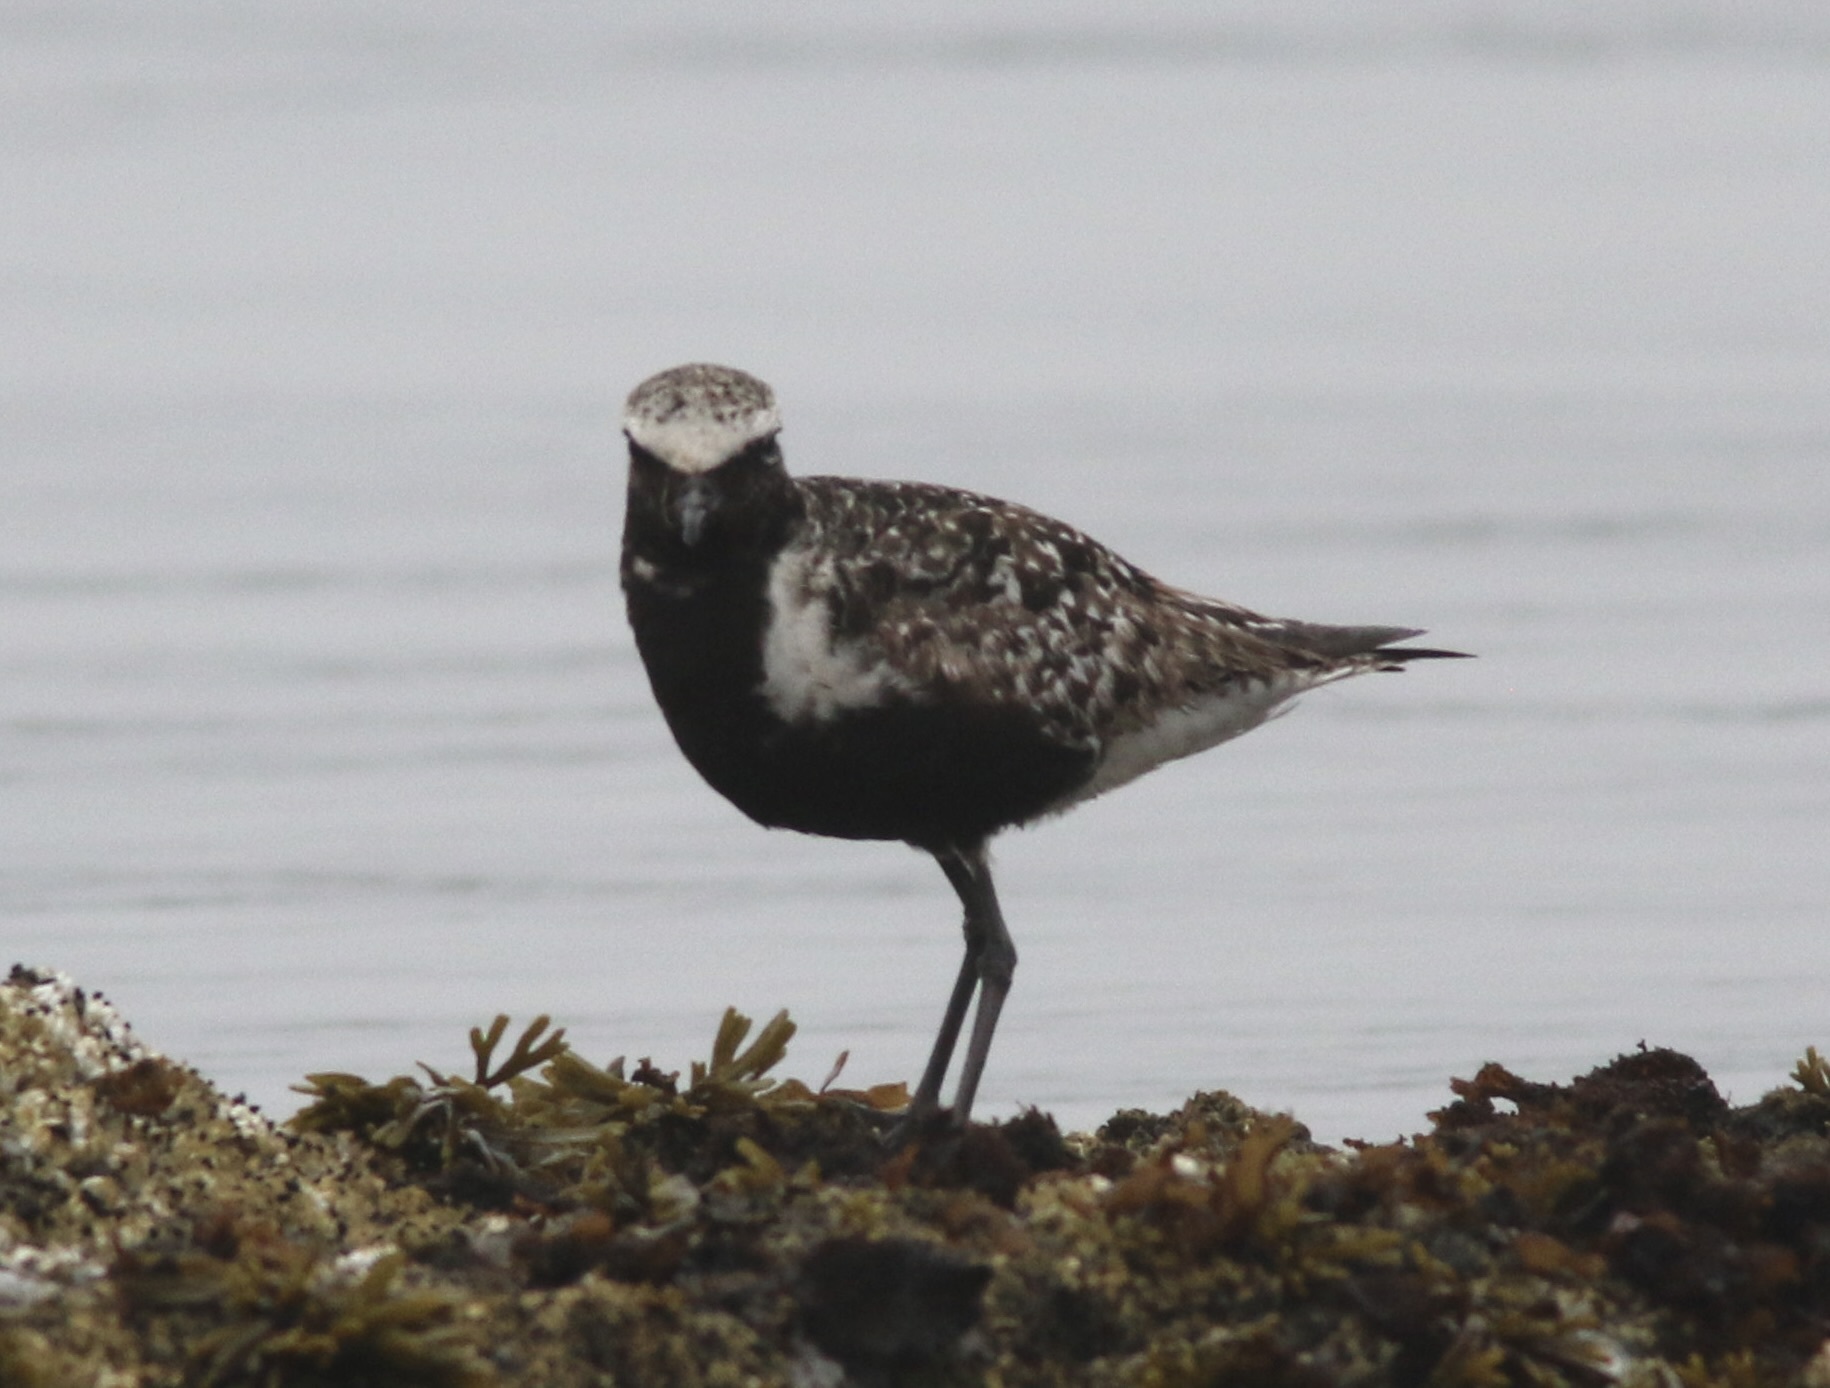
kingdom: Animalia
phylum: Chordata
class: Aves
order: Charadriiformes
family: Charadriidae
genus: Pluvialis
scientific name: Pluvialis squatarola
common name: Grey plover
